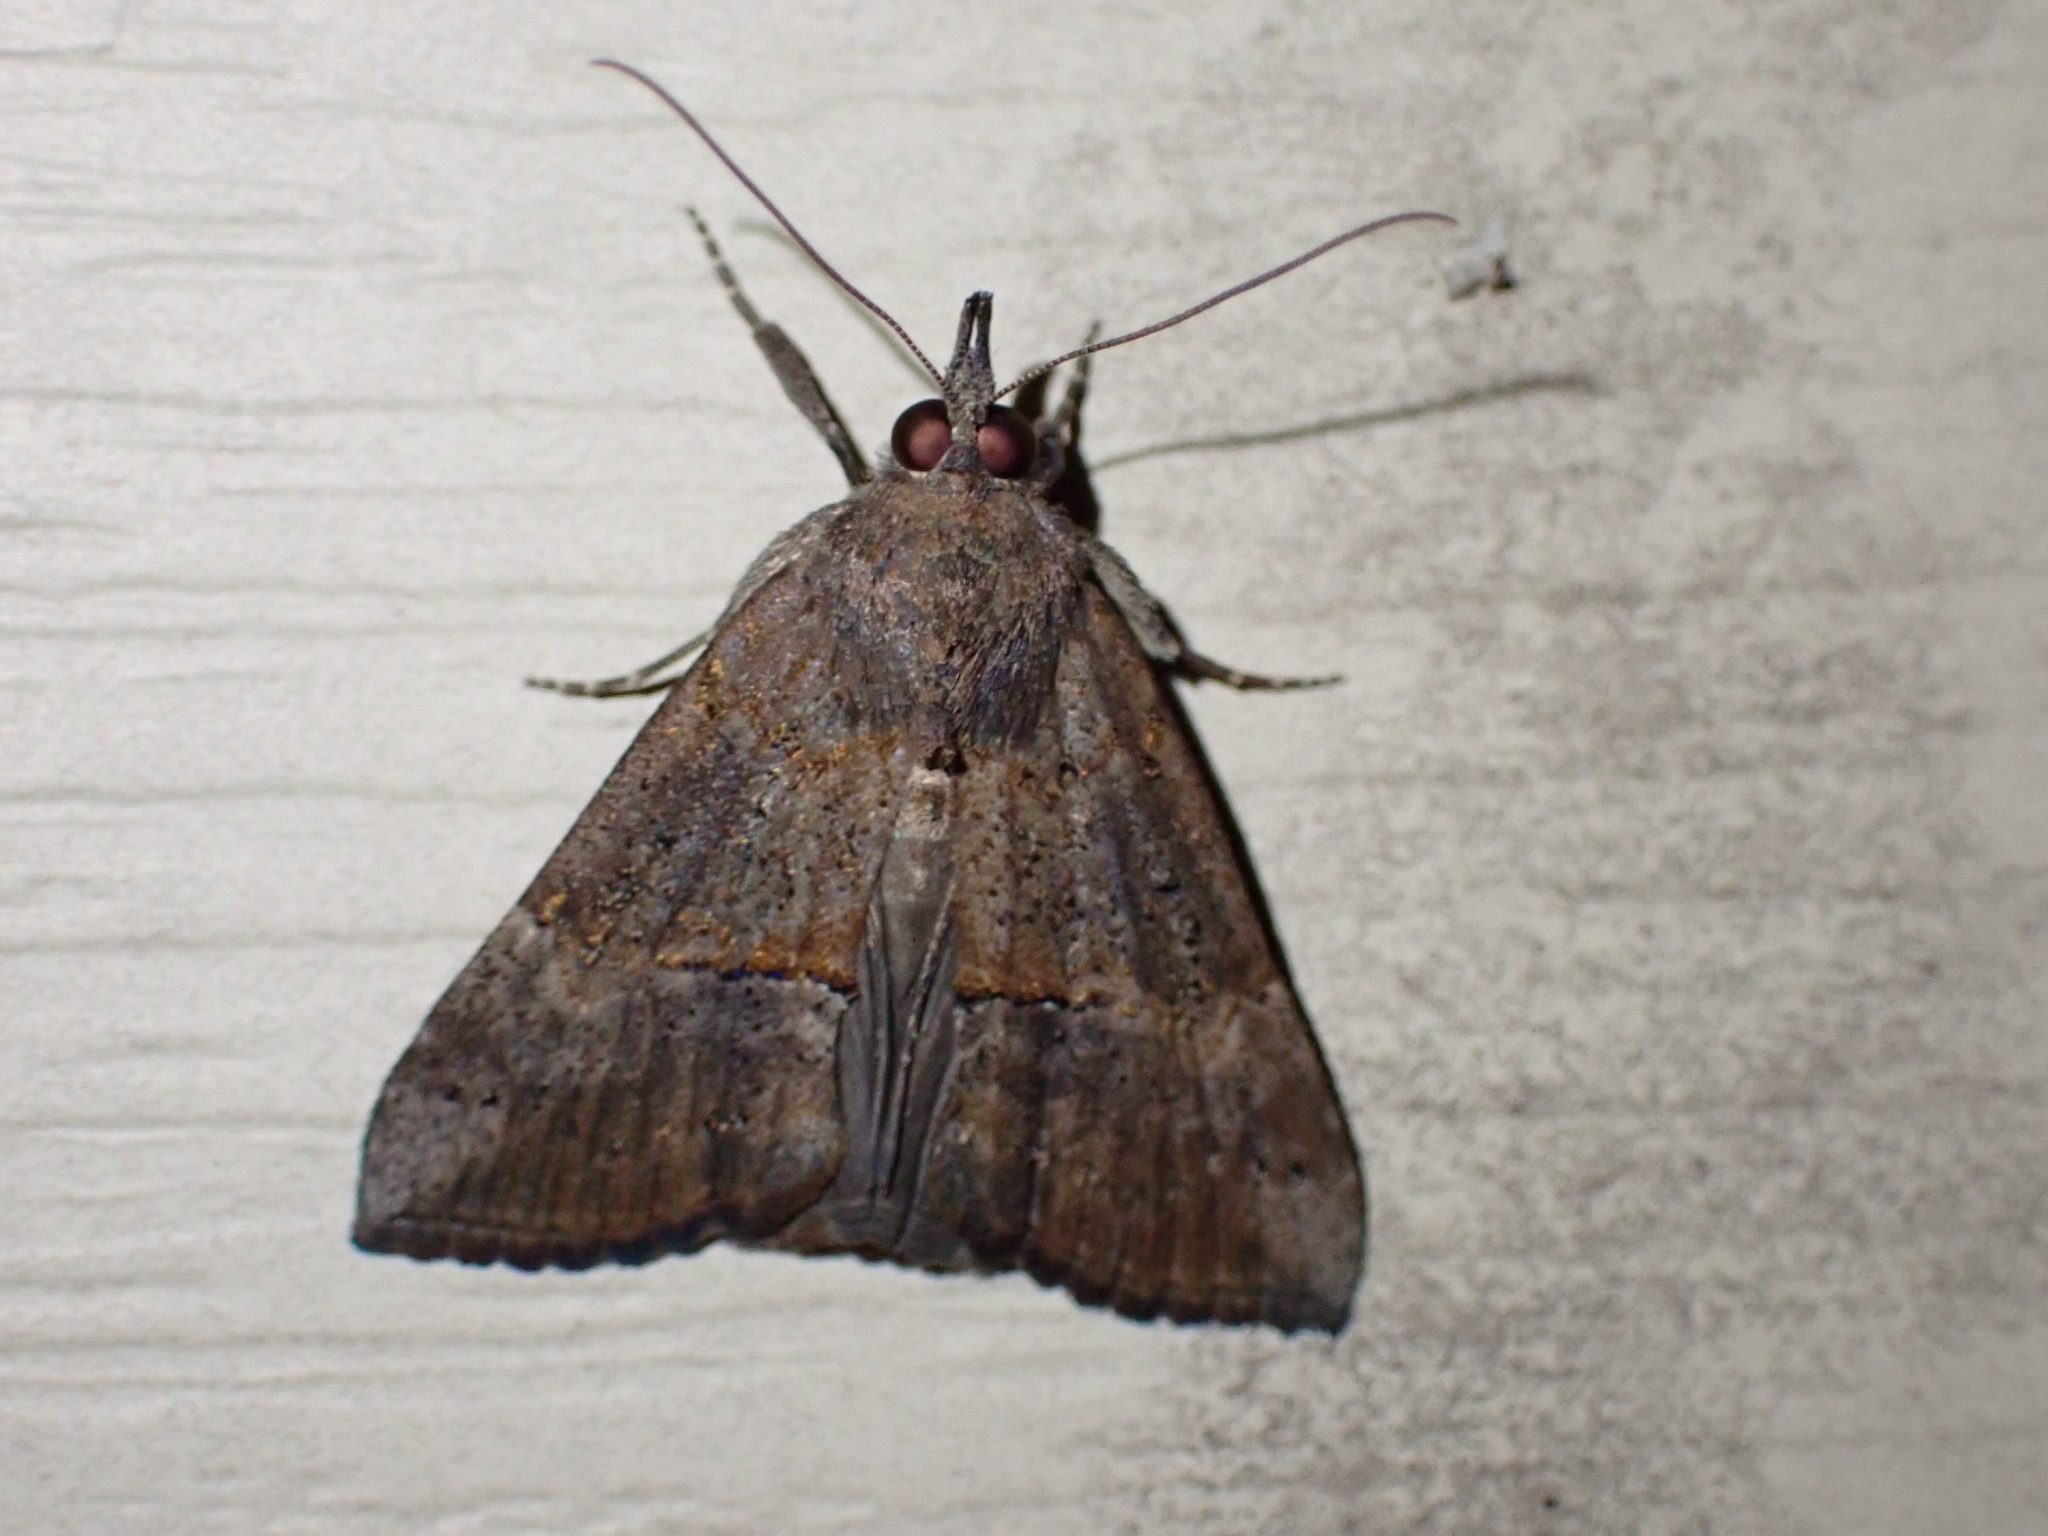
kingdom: Animalia
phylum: Arthropoda
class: Insecta
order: Lepidoptera
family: Erebidae
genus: Hypena
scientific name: Hypena scabra
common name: Green cloverworm
